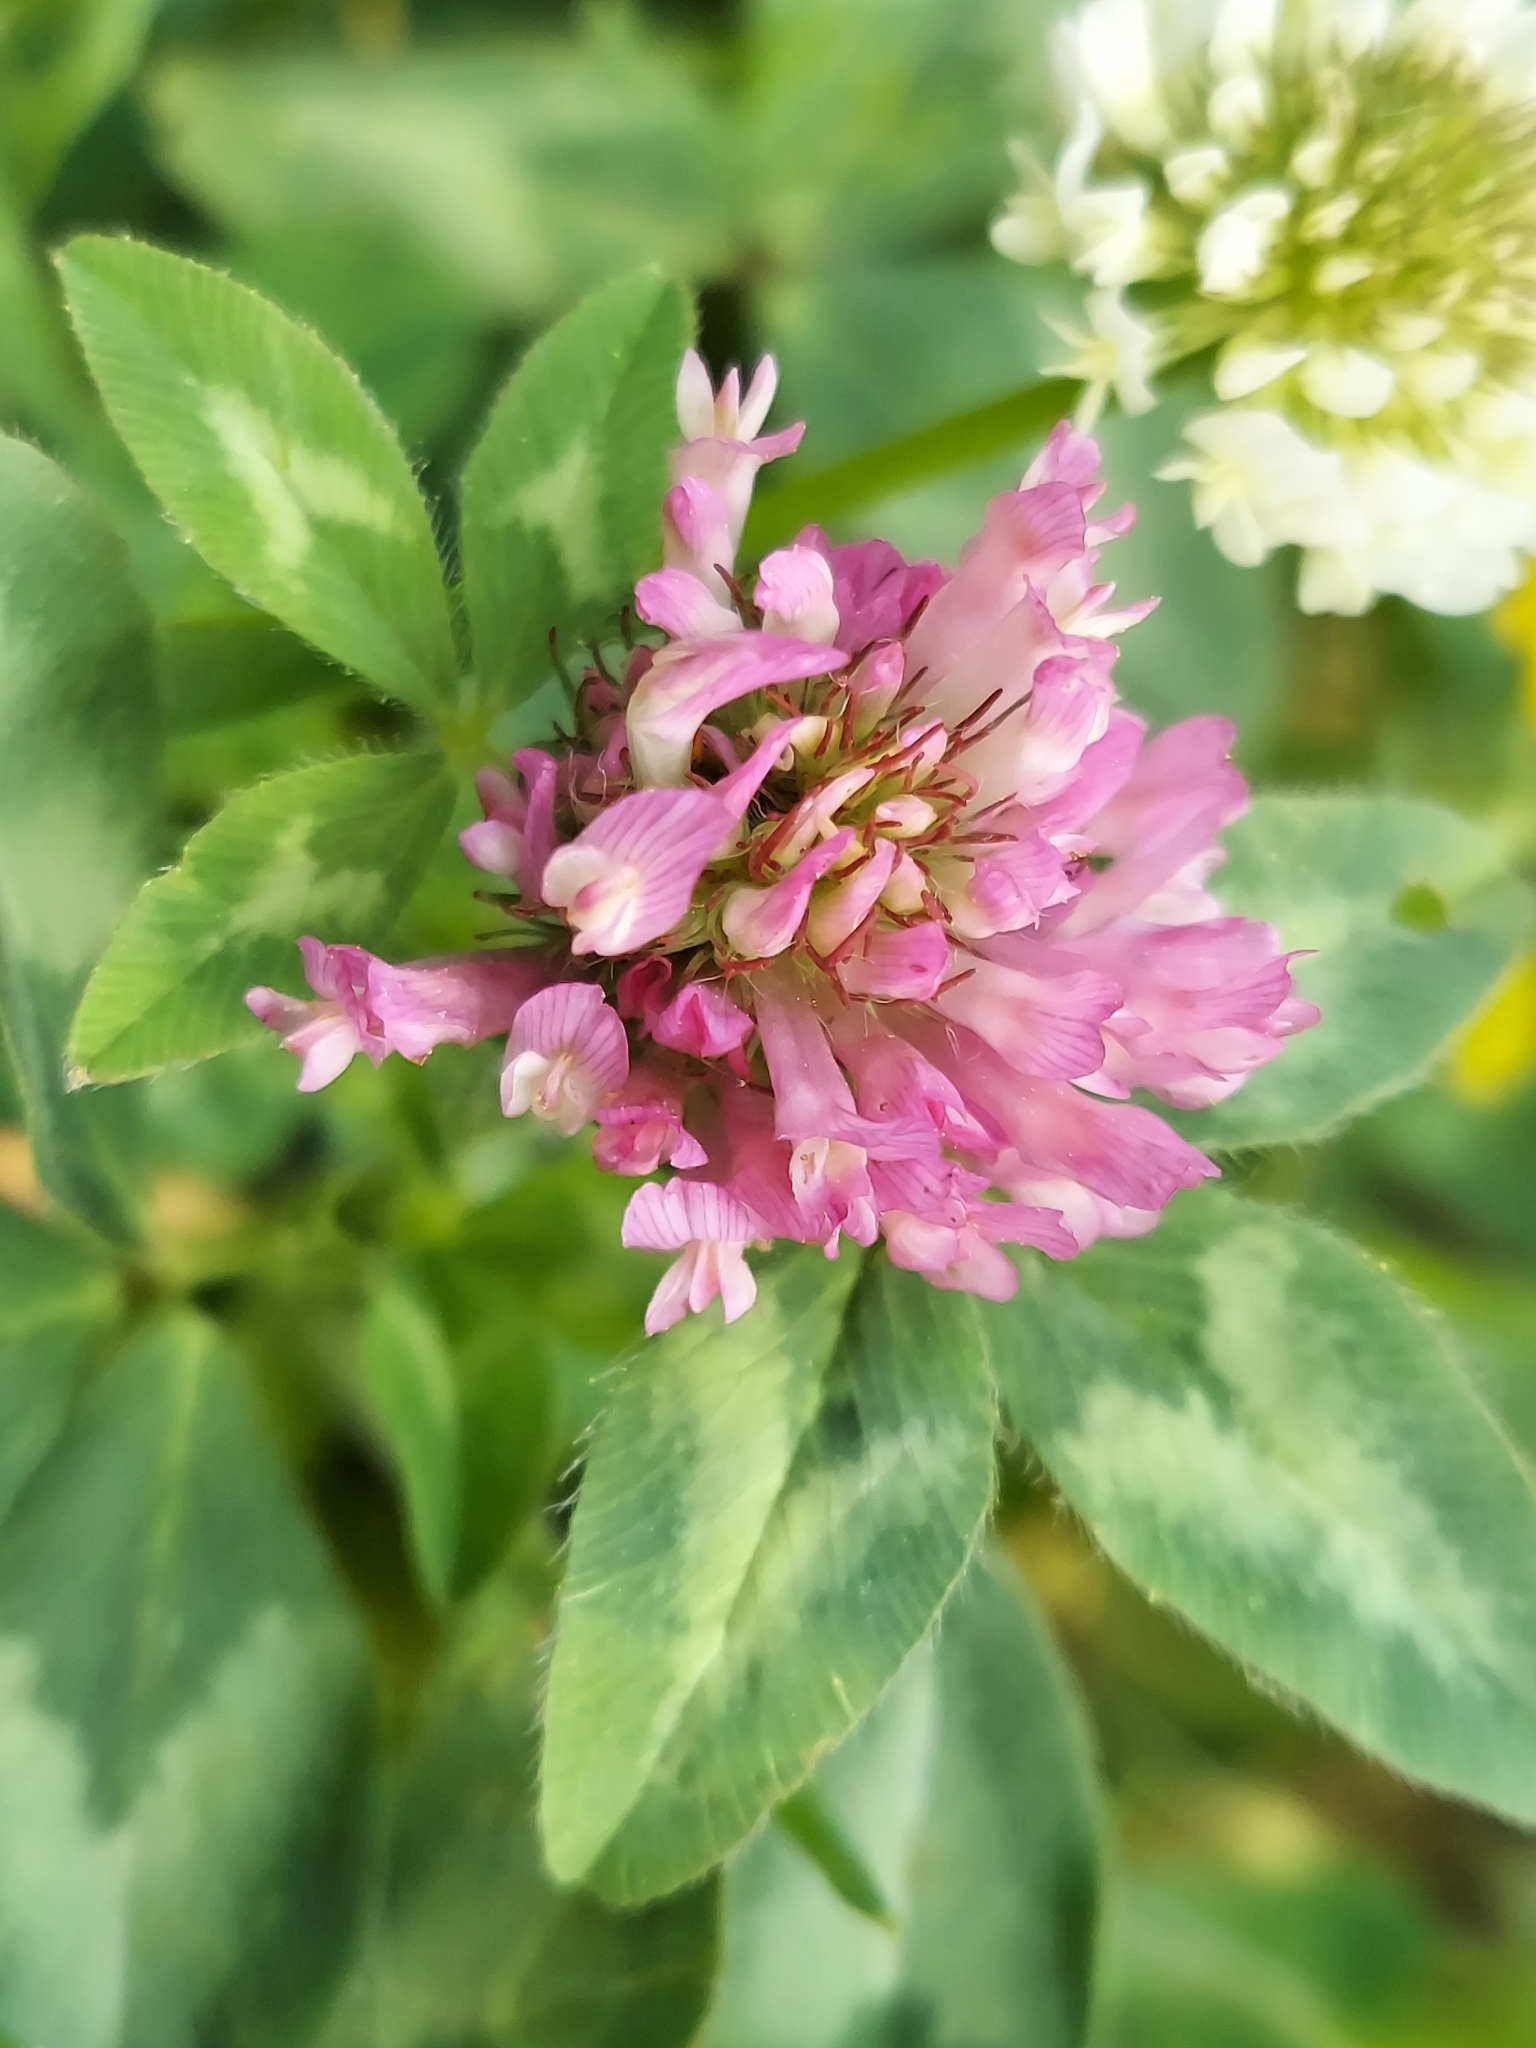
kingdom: Plantae
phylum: Tracheophyta
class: Magnoliopsida
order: Fabales
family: Fabaceae
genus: Trifolium
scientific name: Trifolium pratense
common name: Red clover
